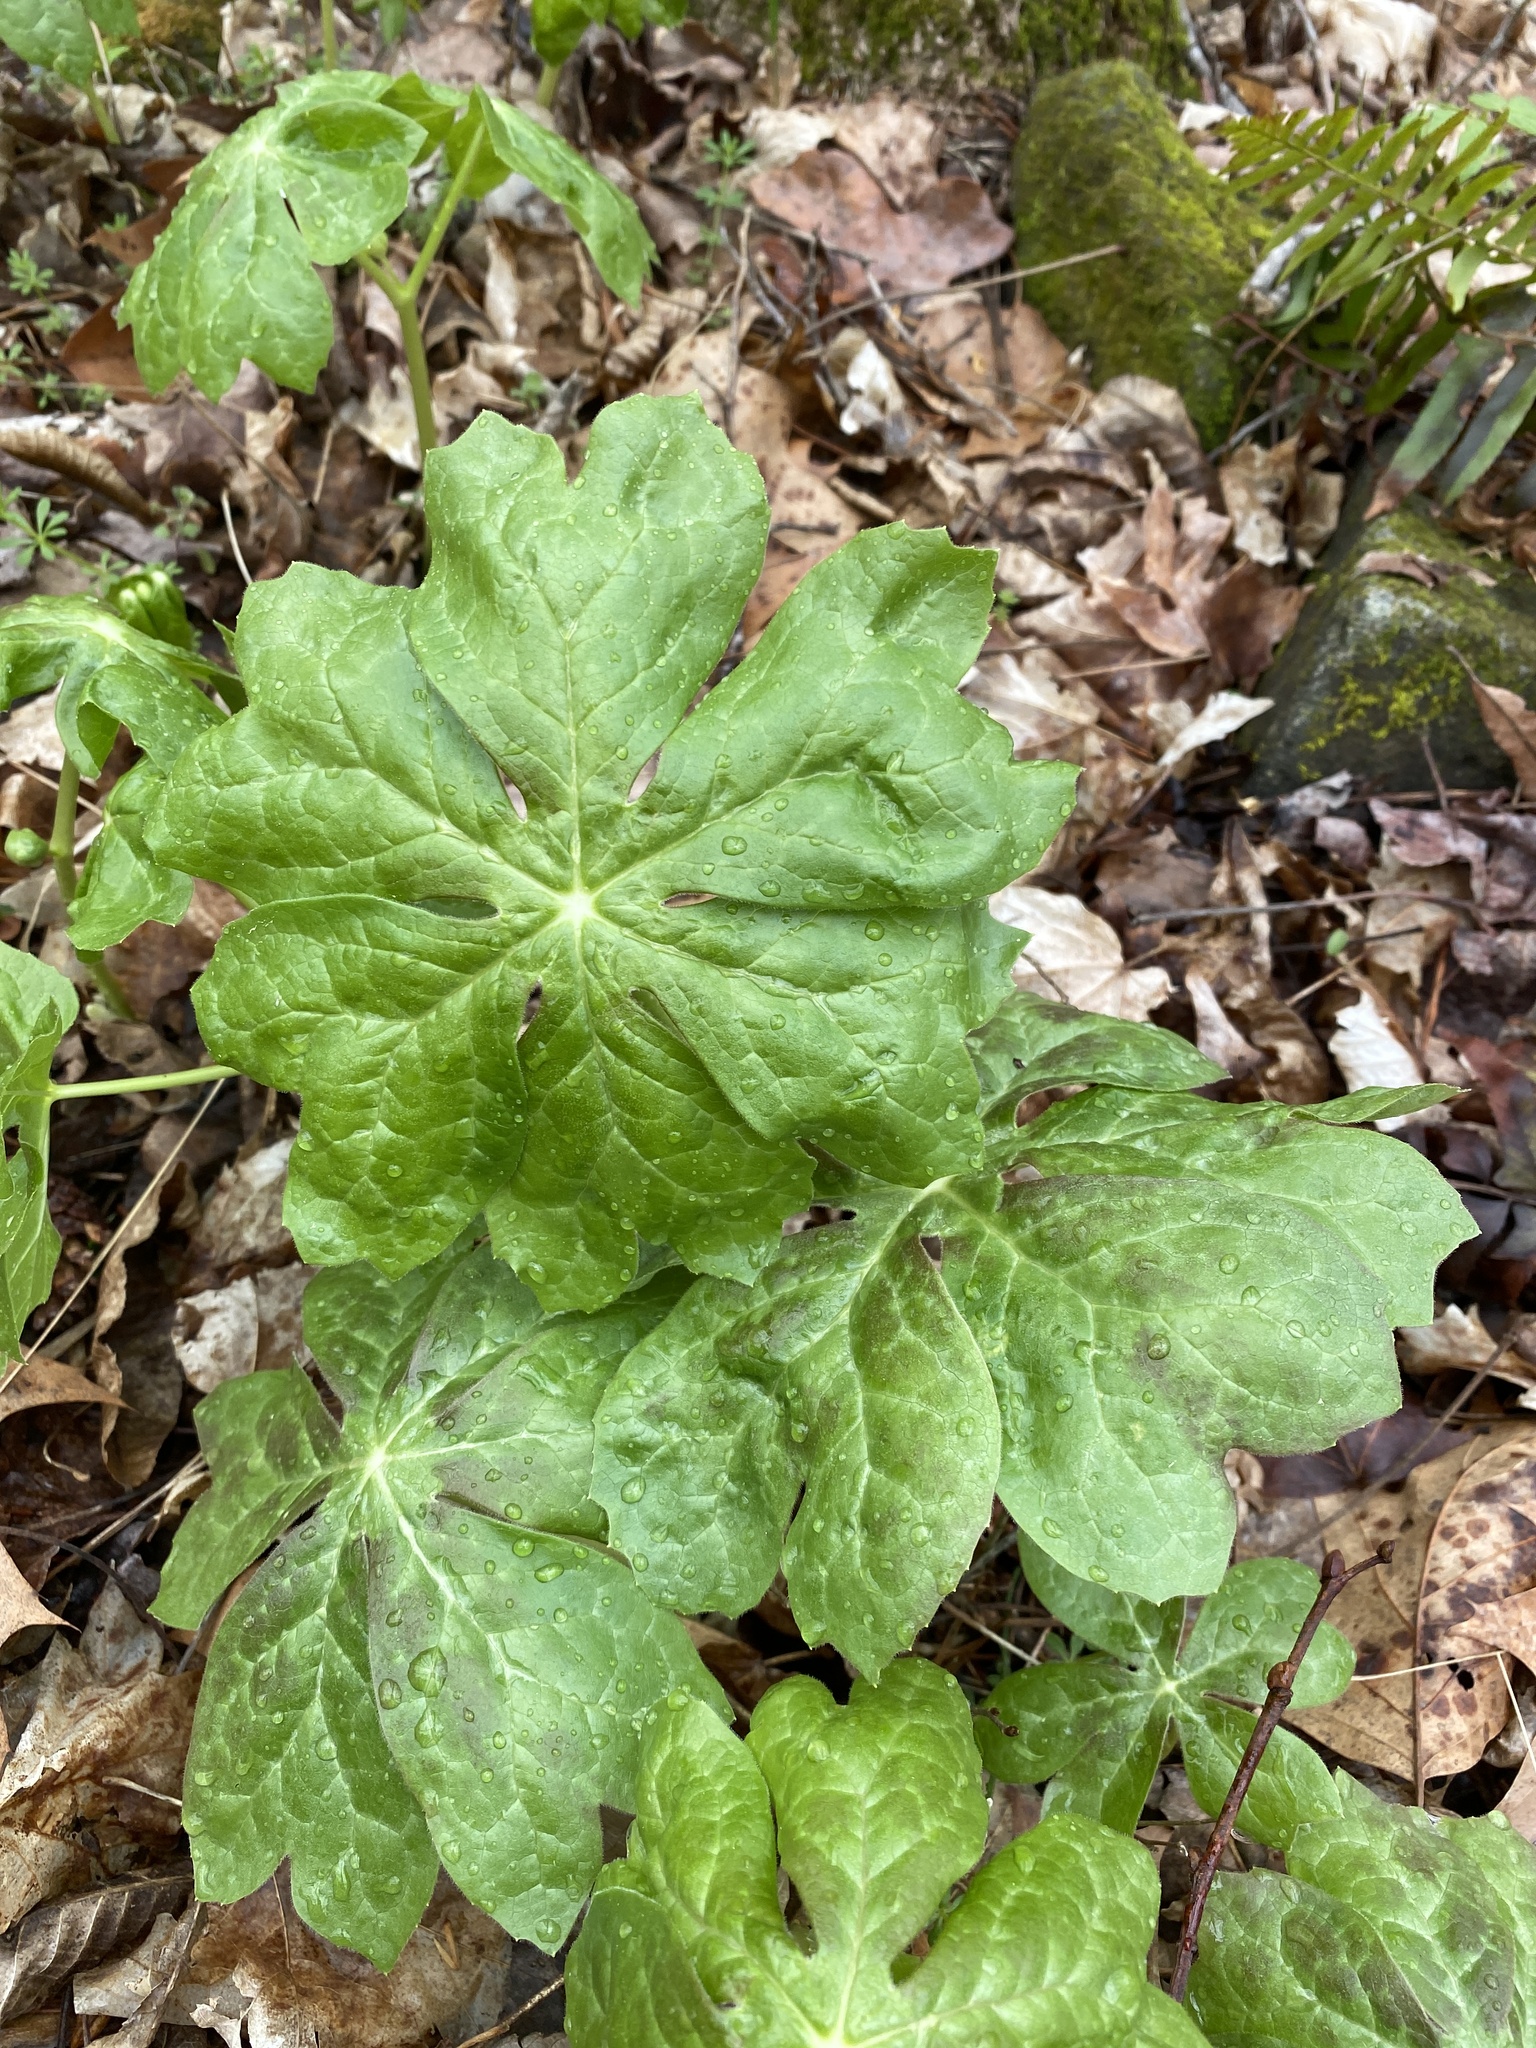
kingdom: Plantae
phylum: Tracheophyta
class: Magnoliopsida
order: Ranunculales
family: Berberidaceae
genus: Podophyllum
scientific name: Podophyllum peltatum
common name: Wild mandrake
